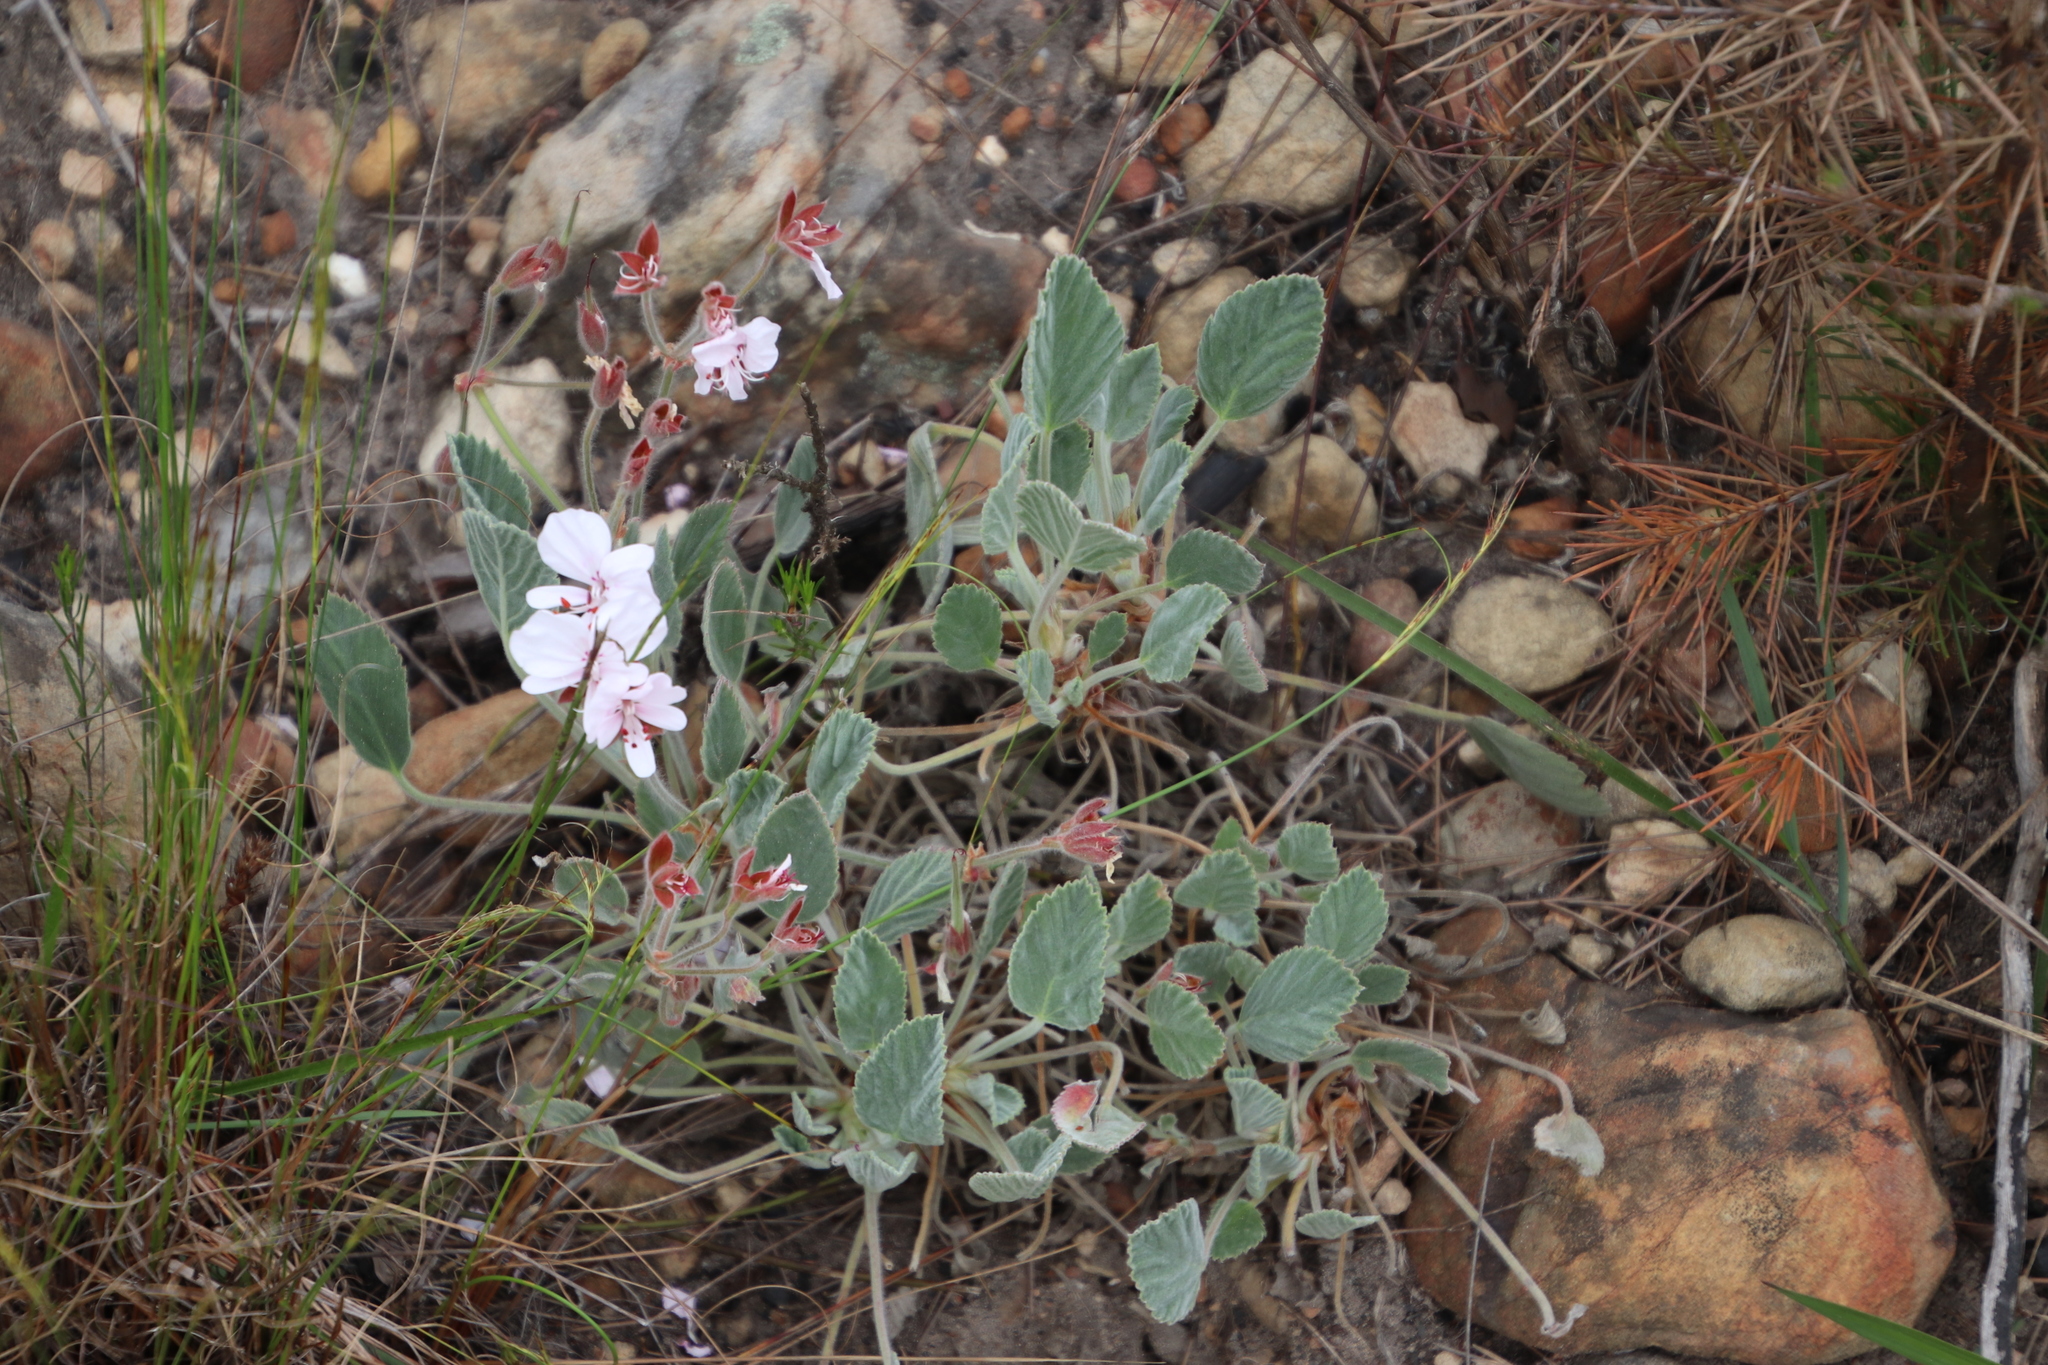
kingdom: Plantae
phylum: Tracheophyta
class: Magnoliopsida
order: Geraniales
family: Geraniaceae
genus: Pelargonium
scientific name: Pelargonium ovale
